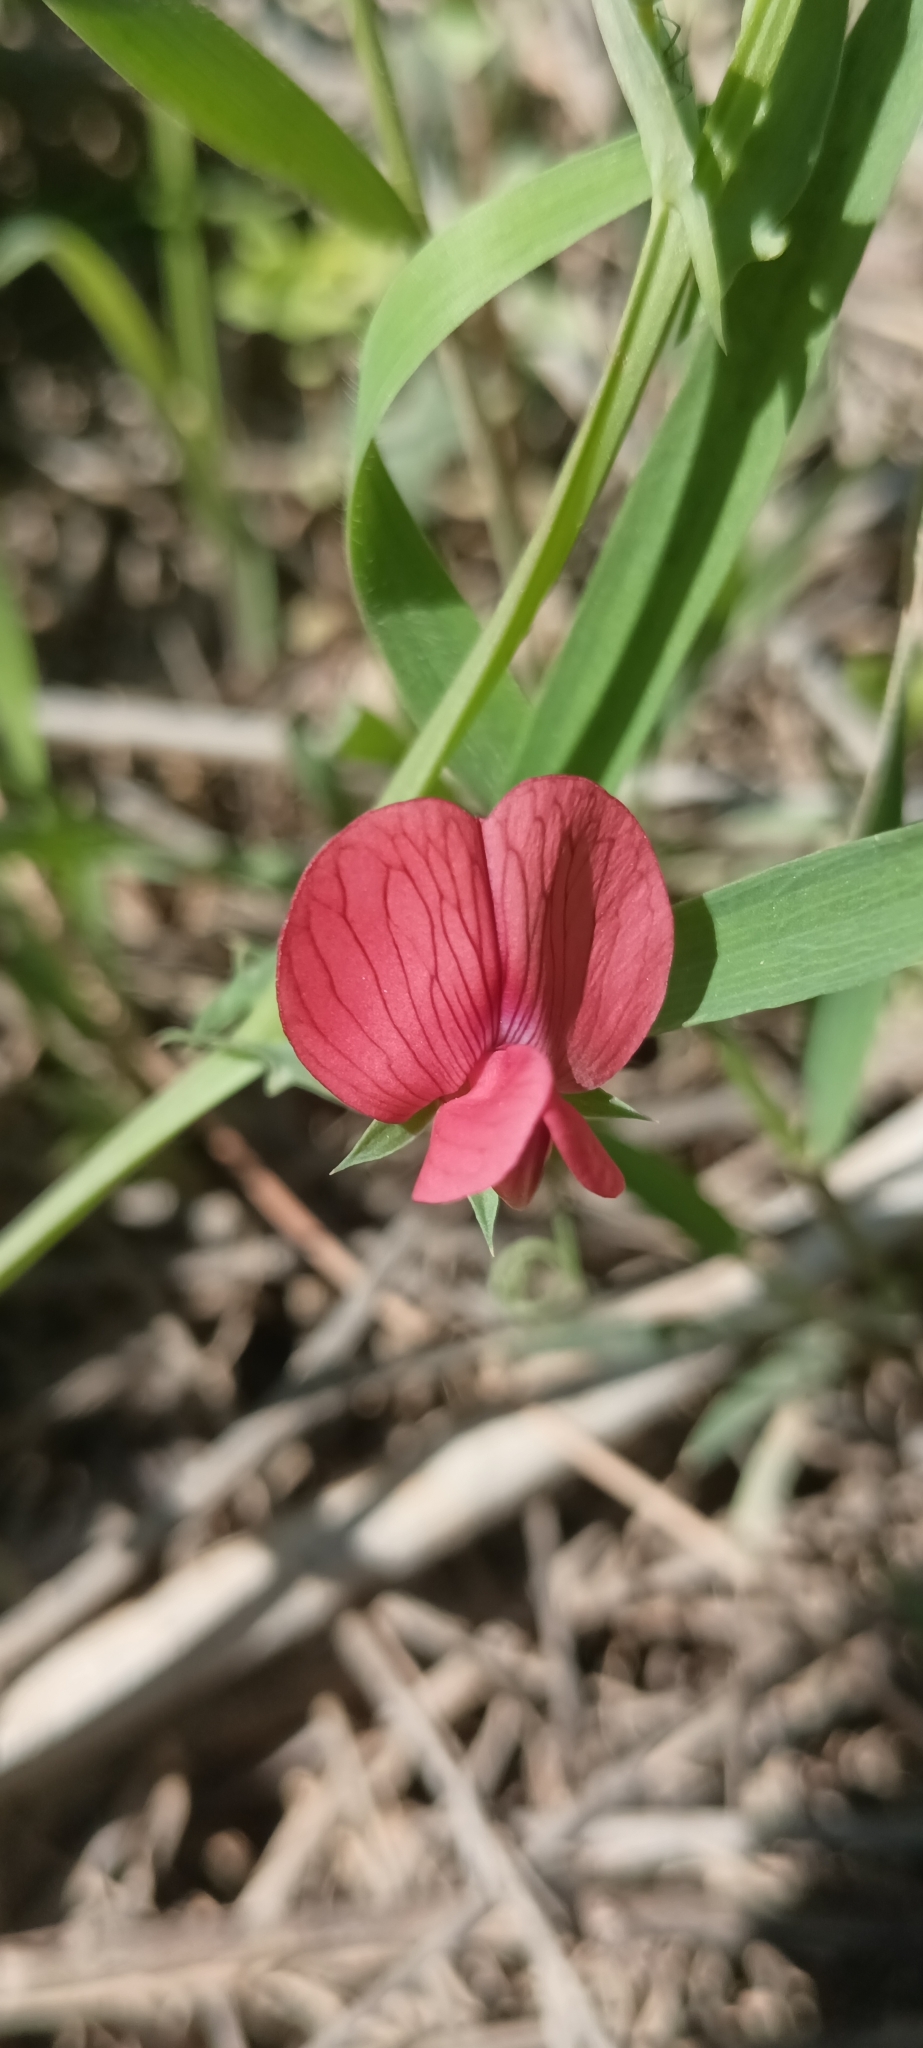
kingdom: Plantae
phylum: Tracheophyta
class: Magnoliopsida
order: Fabales
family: Fabaceae
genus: Lathyrus
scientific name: Lathyrus cicera
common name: Red vetchling
